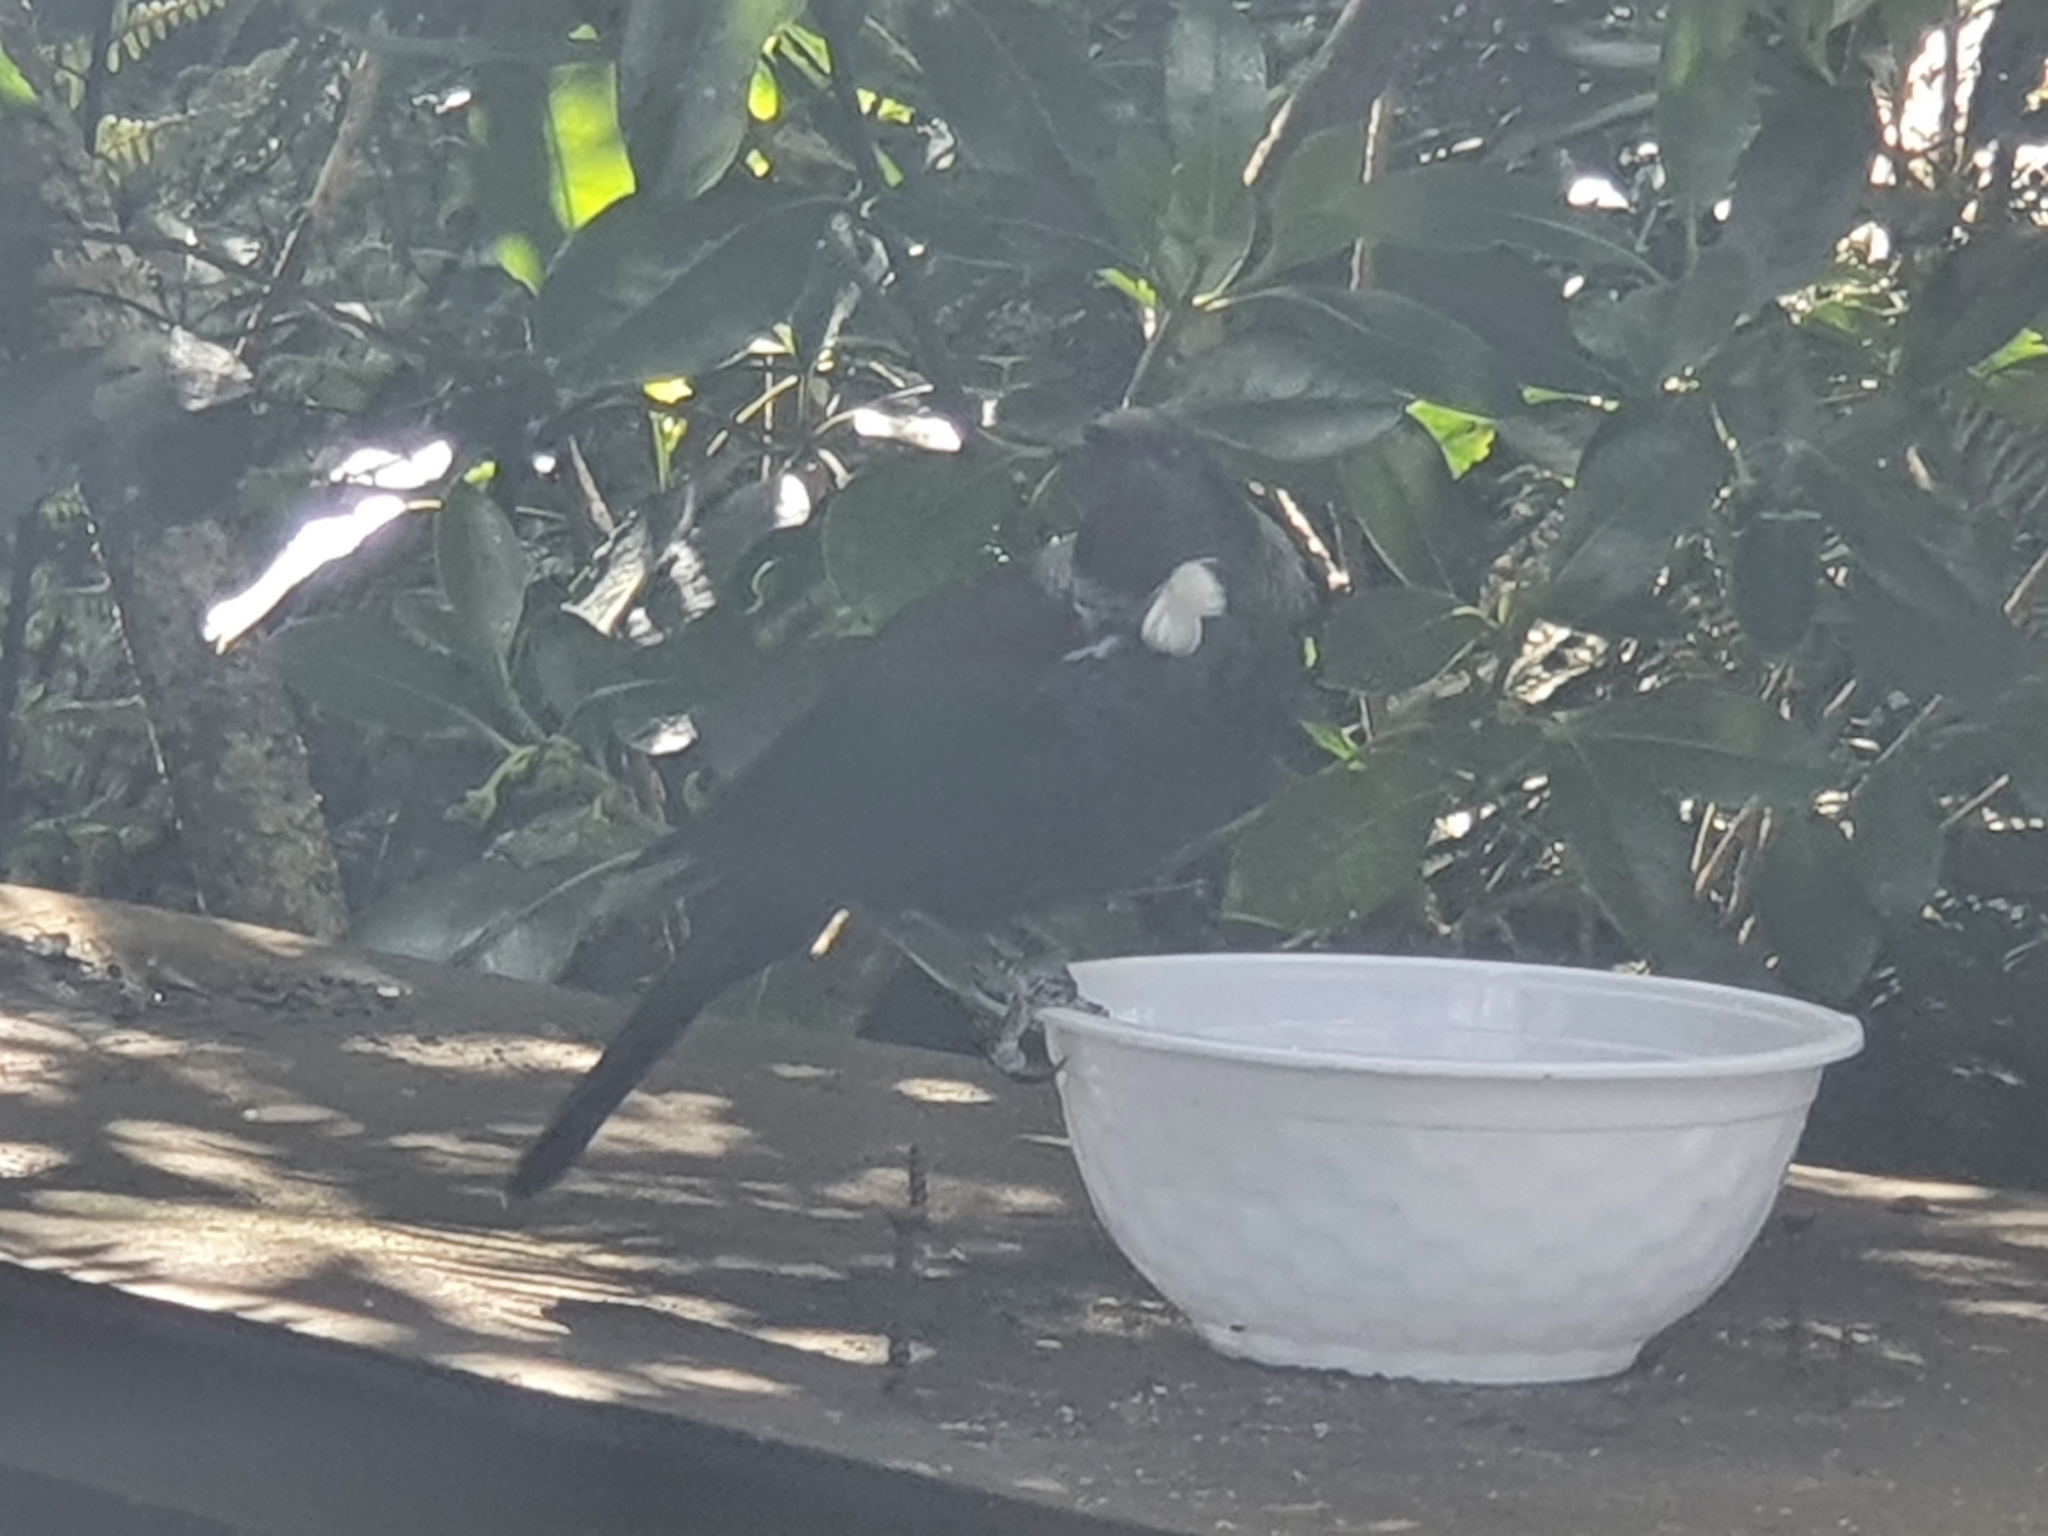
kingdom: Animalia
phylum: Chordata
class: Aves
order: Passeriformes
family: Meliphagidae
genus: Prosthemadera
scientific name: Prosthemadera novaeseelandiae
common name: Tui
